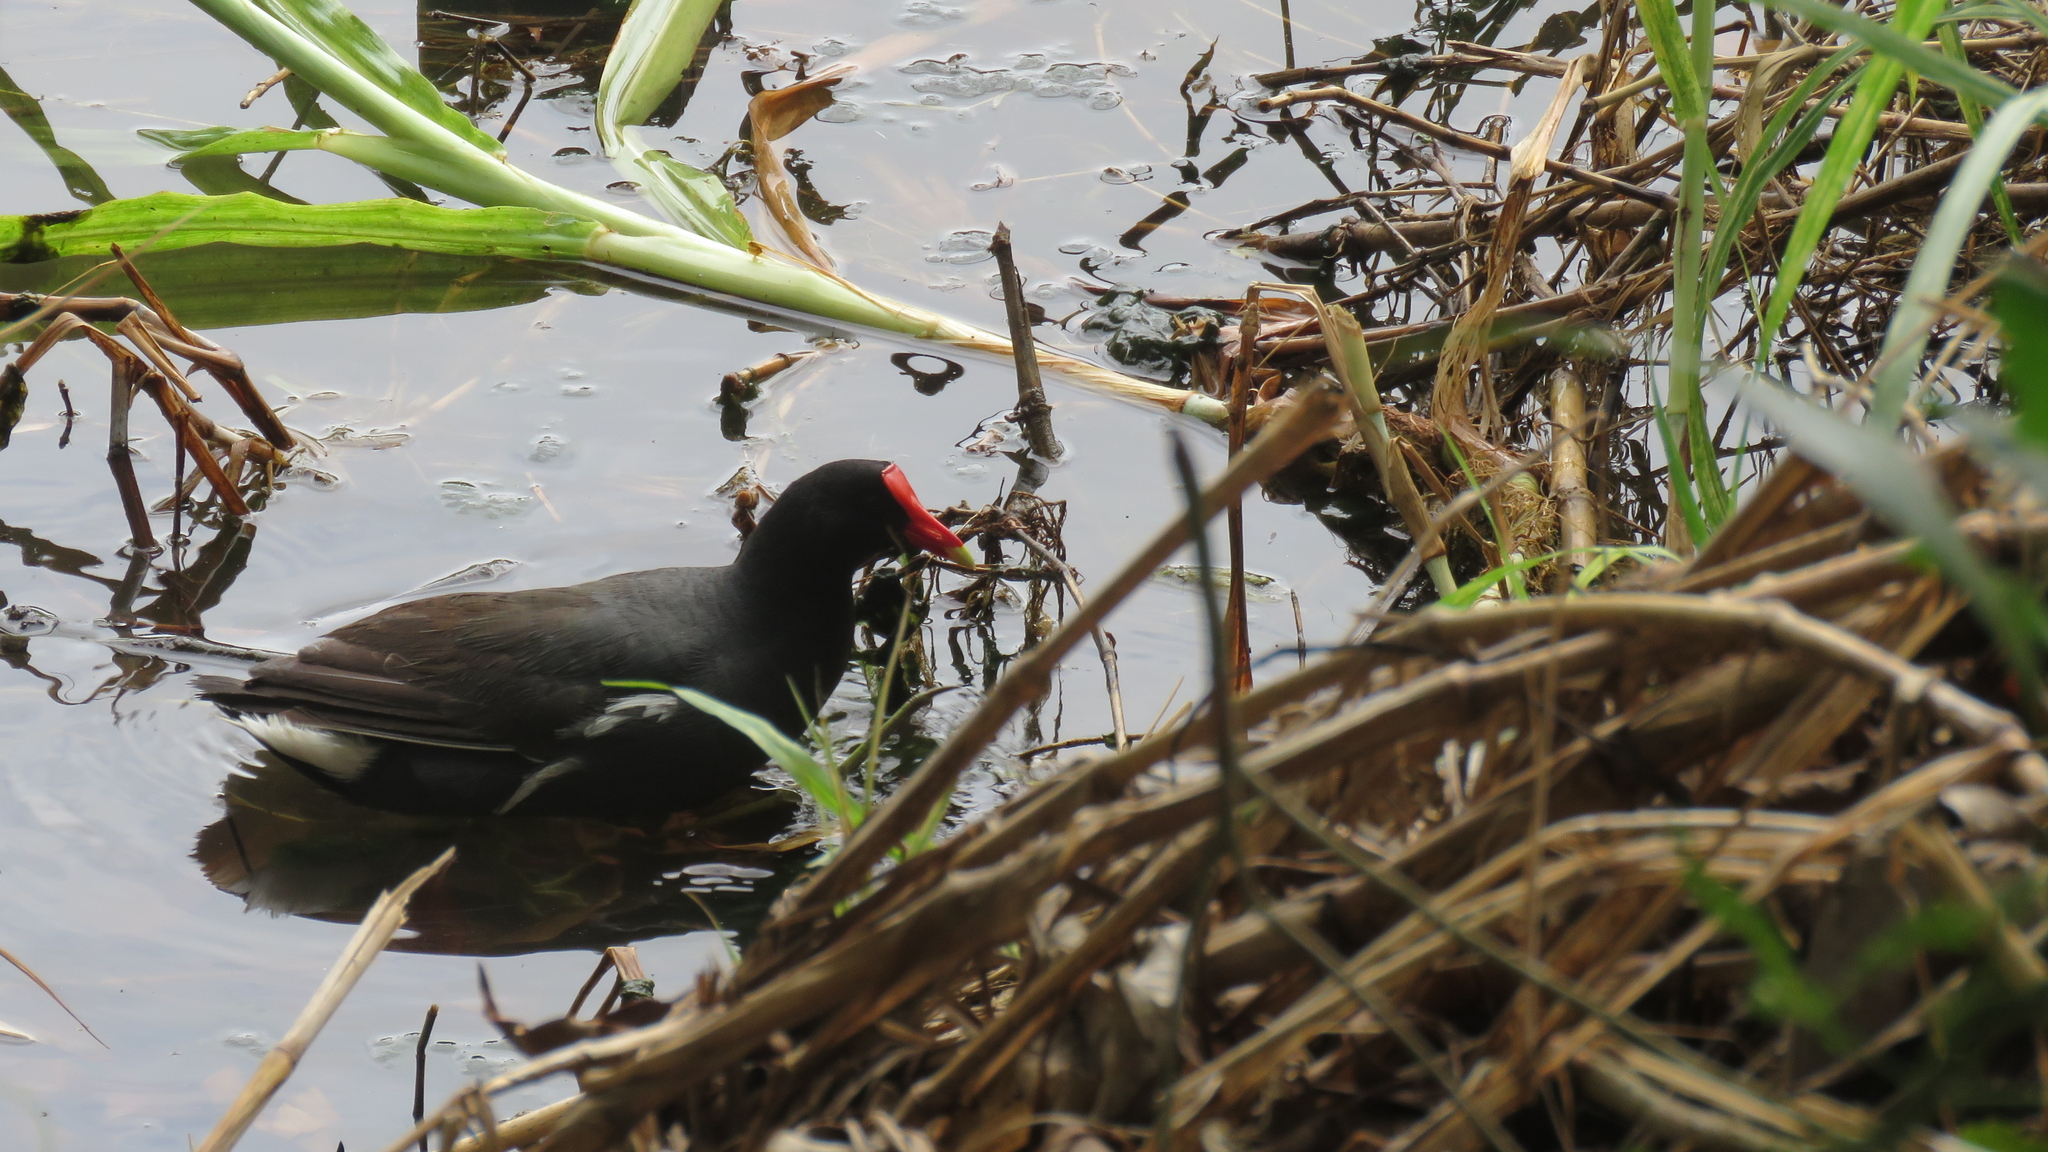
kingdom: Animalia
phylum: Chordata
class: Aves
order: Gruiformes
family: Rallidae
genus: Gallinula
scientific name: Gallinula chloropus
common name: Common moorhen
